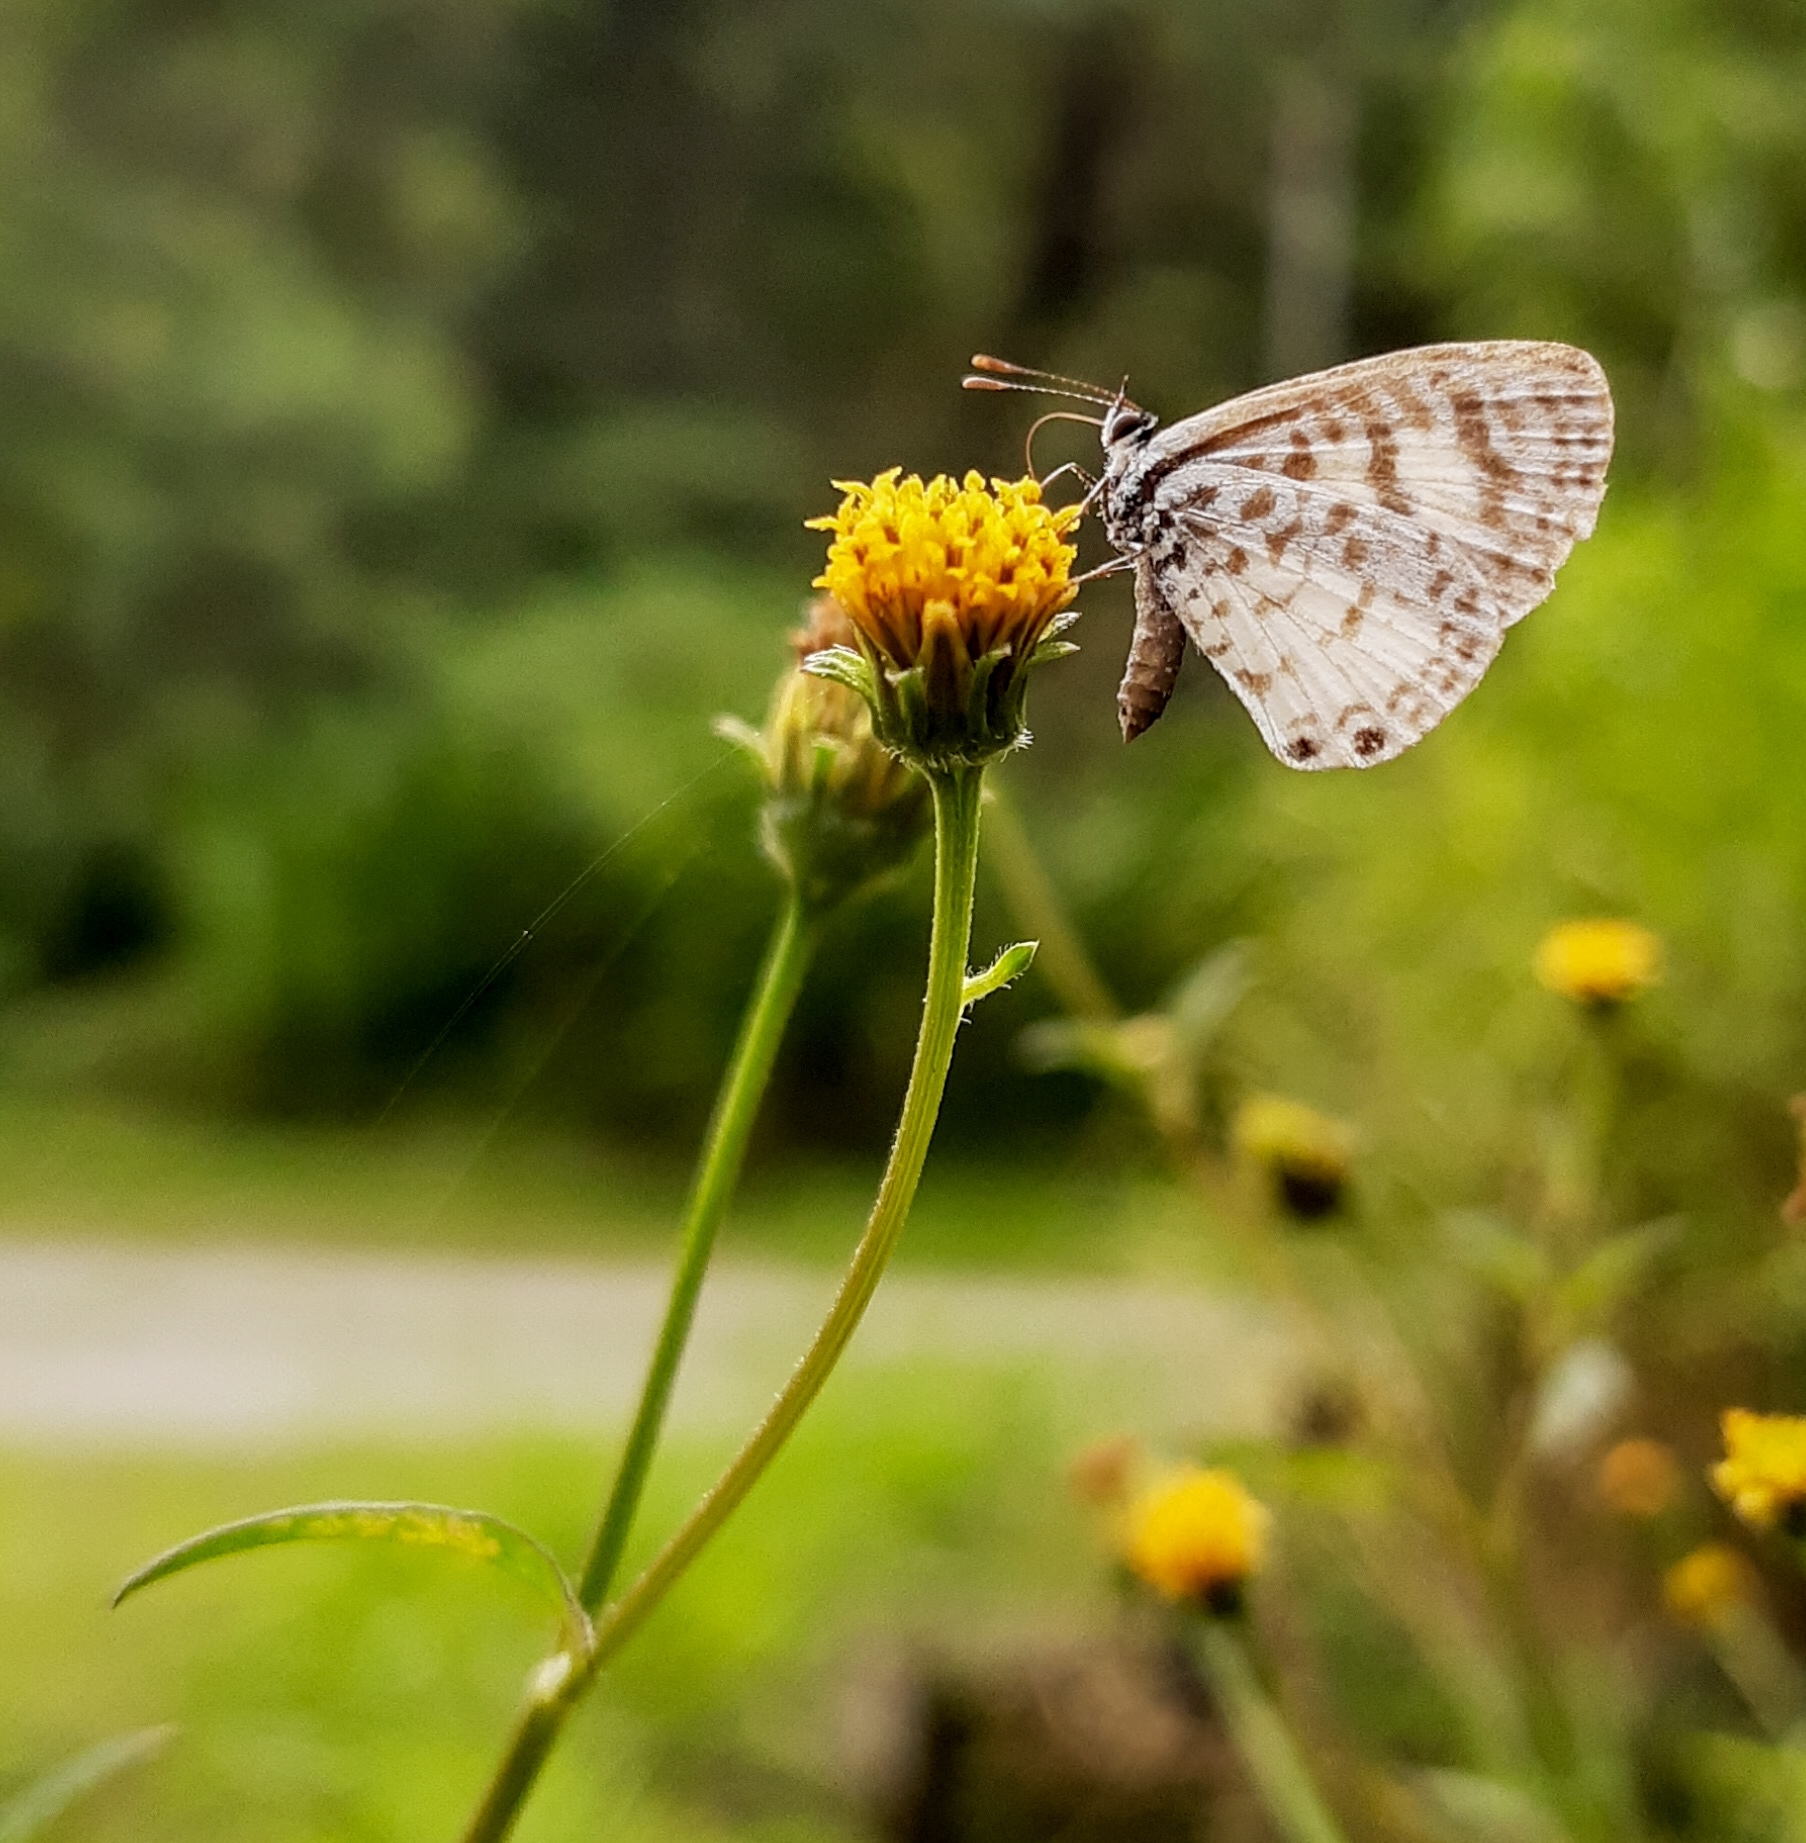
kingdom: Animalia
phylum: Arthropoda
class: Insecta
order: Lepidoptera
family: Lycaenidae
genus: Leptotes
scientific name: Leptotes cassius
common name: Cassius blue
